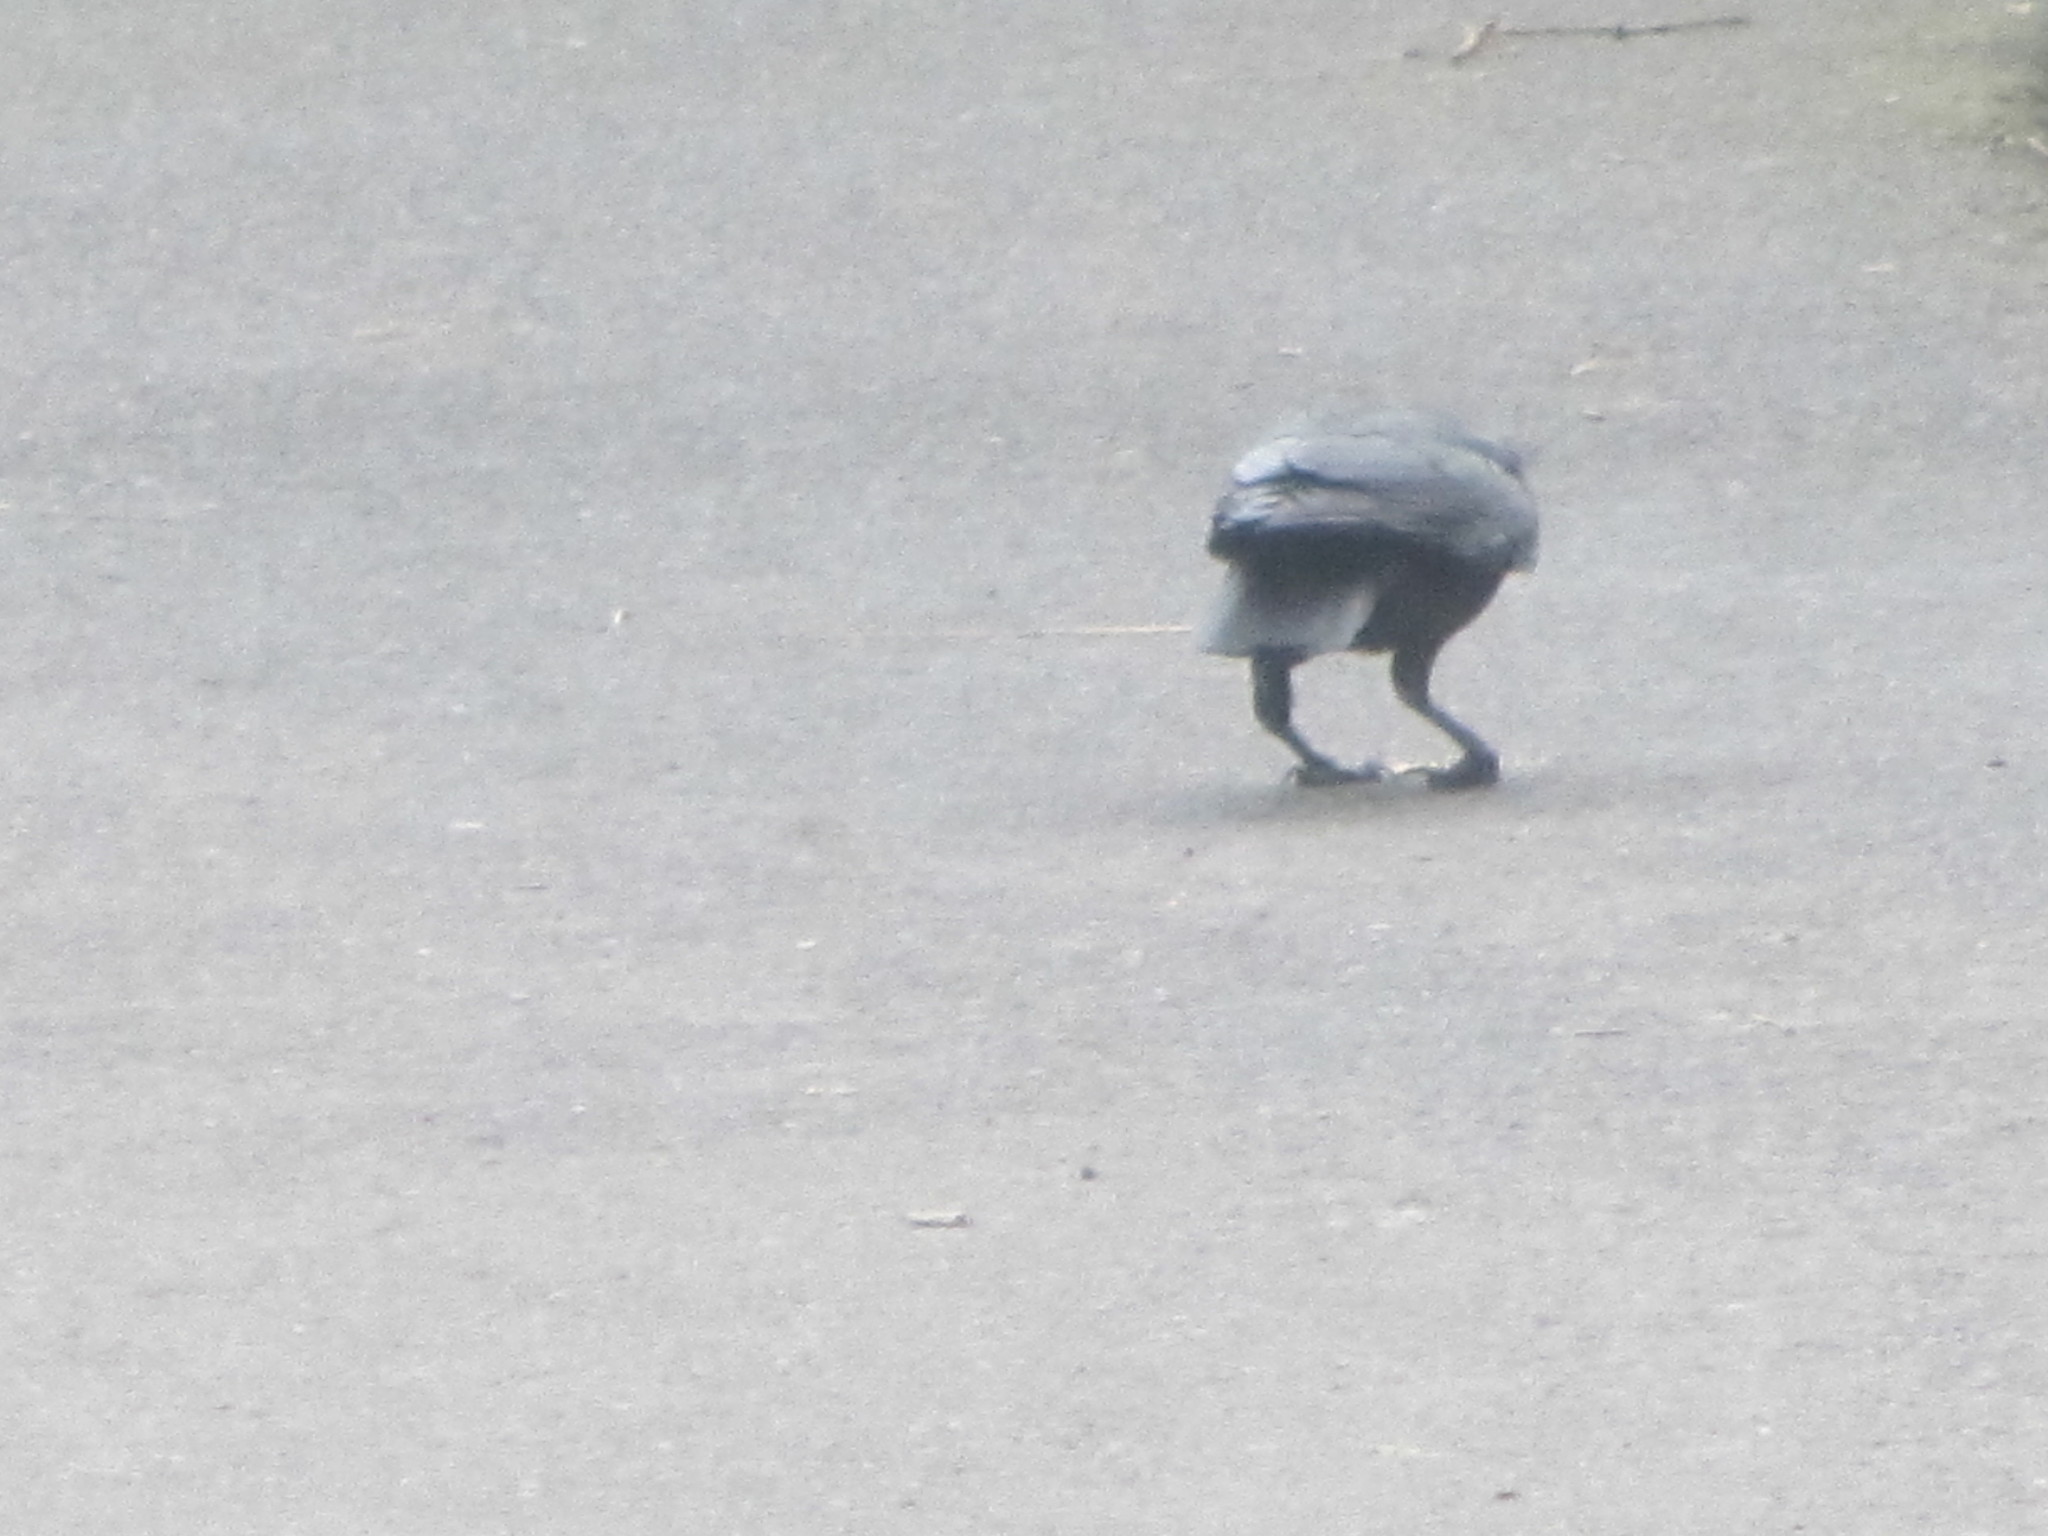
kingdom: Animalia
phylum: Chordata
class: Aves
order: Passeriformes
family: Corvidae
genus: Corvus
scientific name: Corvus brachyrhynchos
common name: American crow
